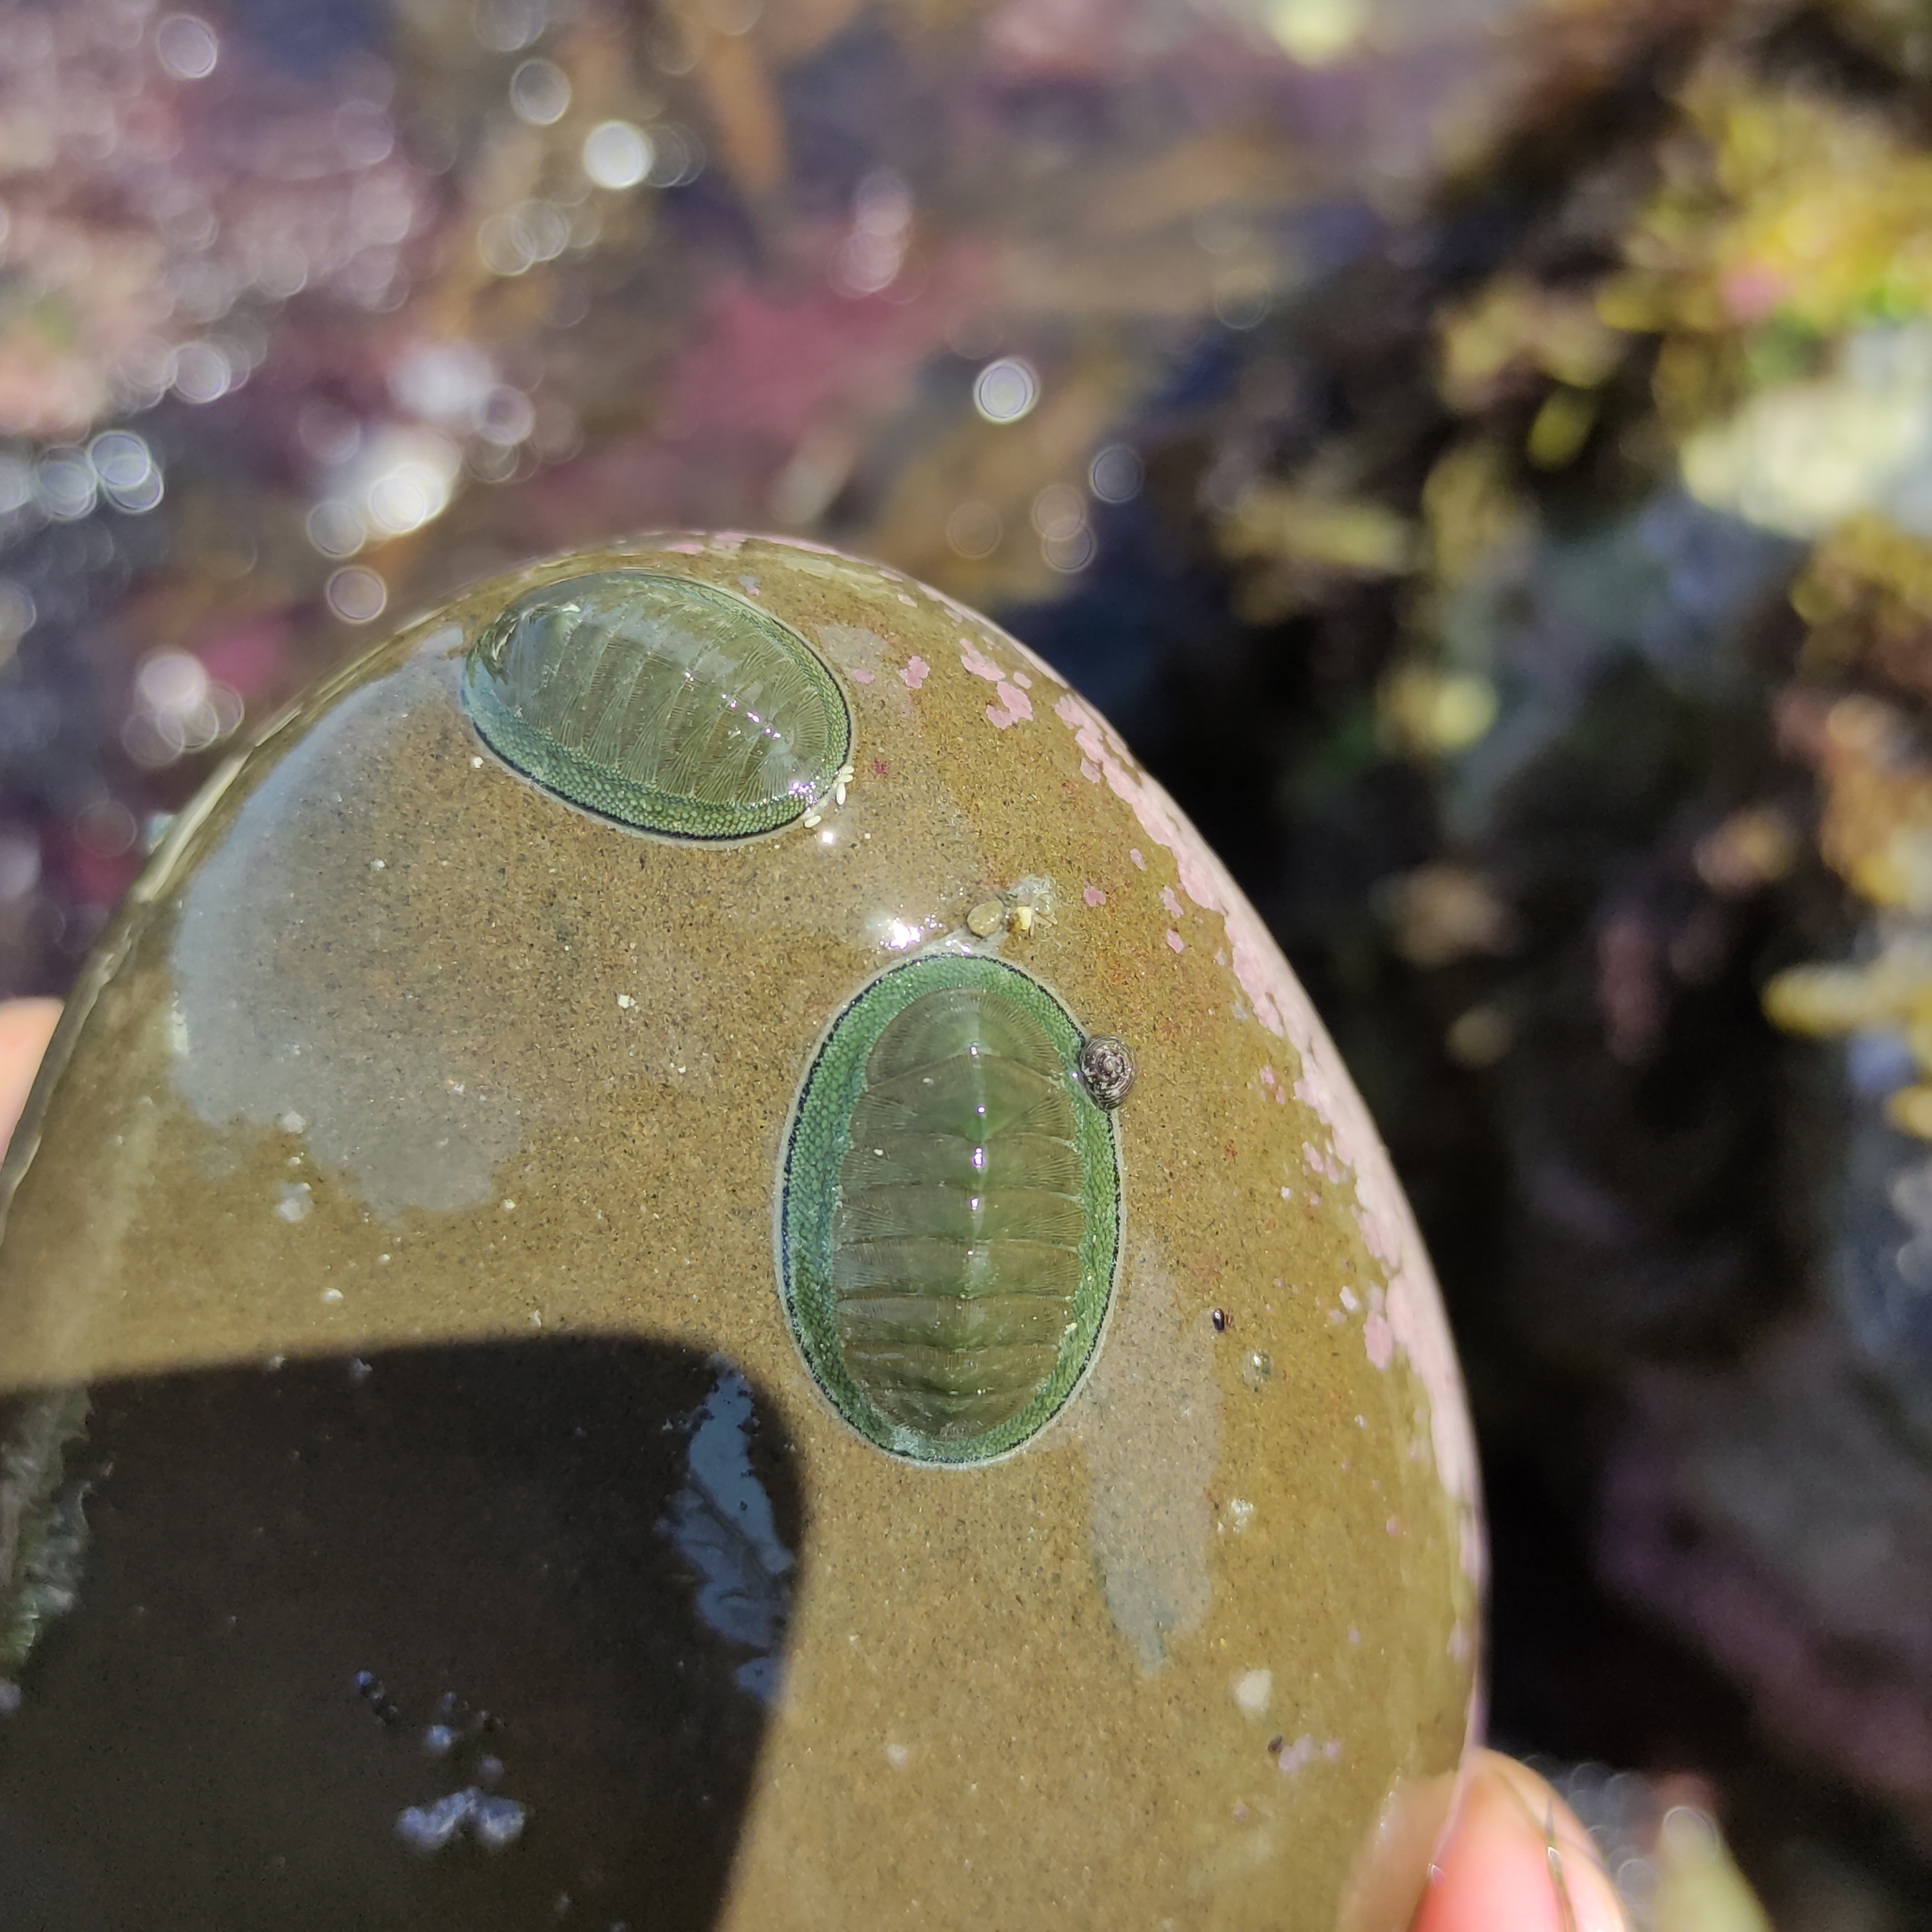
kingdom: Animalia
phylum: Mollusca
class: Polyplacophora
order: Chitonida
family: Chitonidae
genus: Chiton
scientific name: Chiton glaucus
